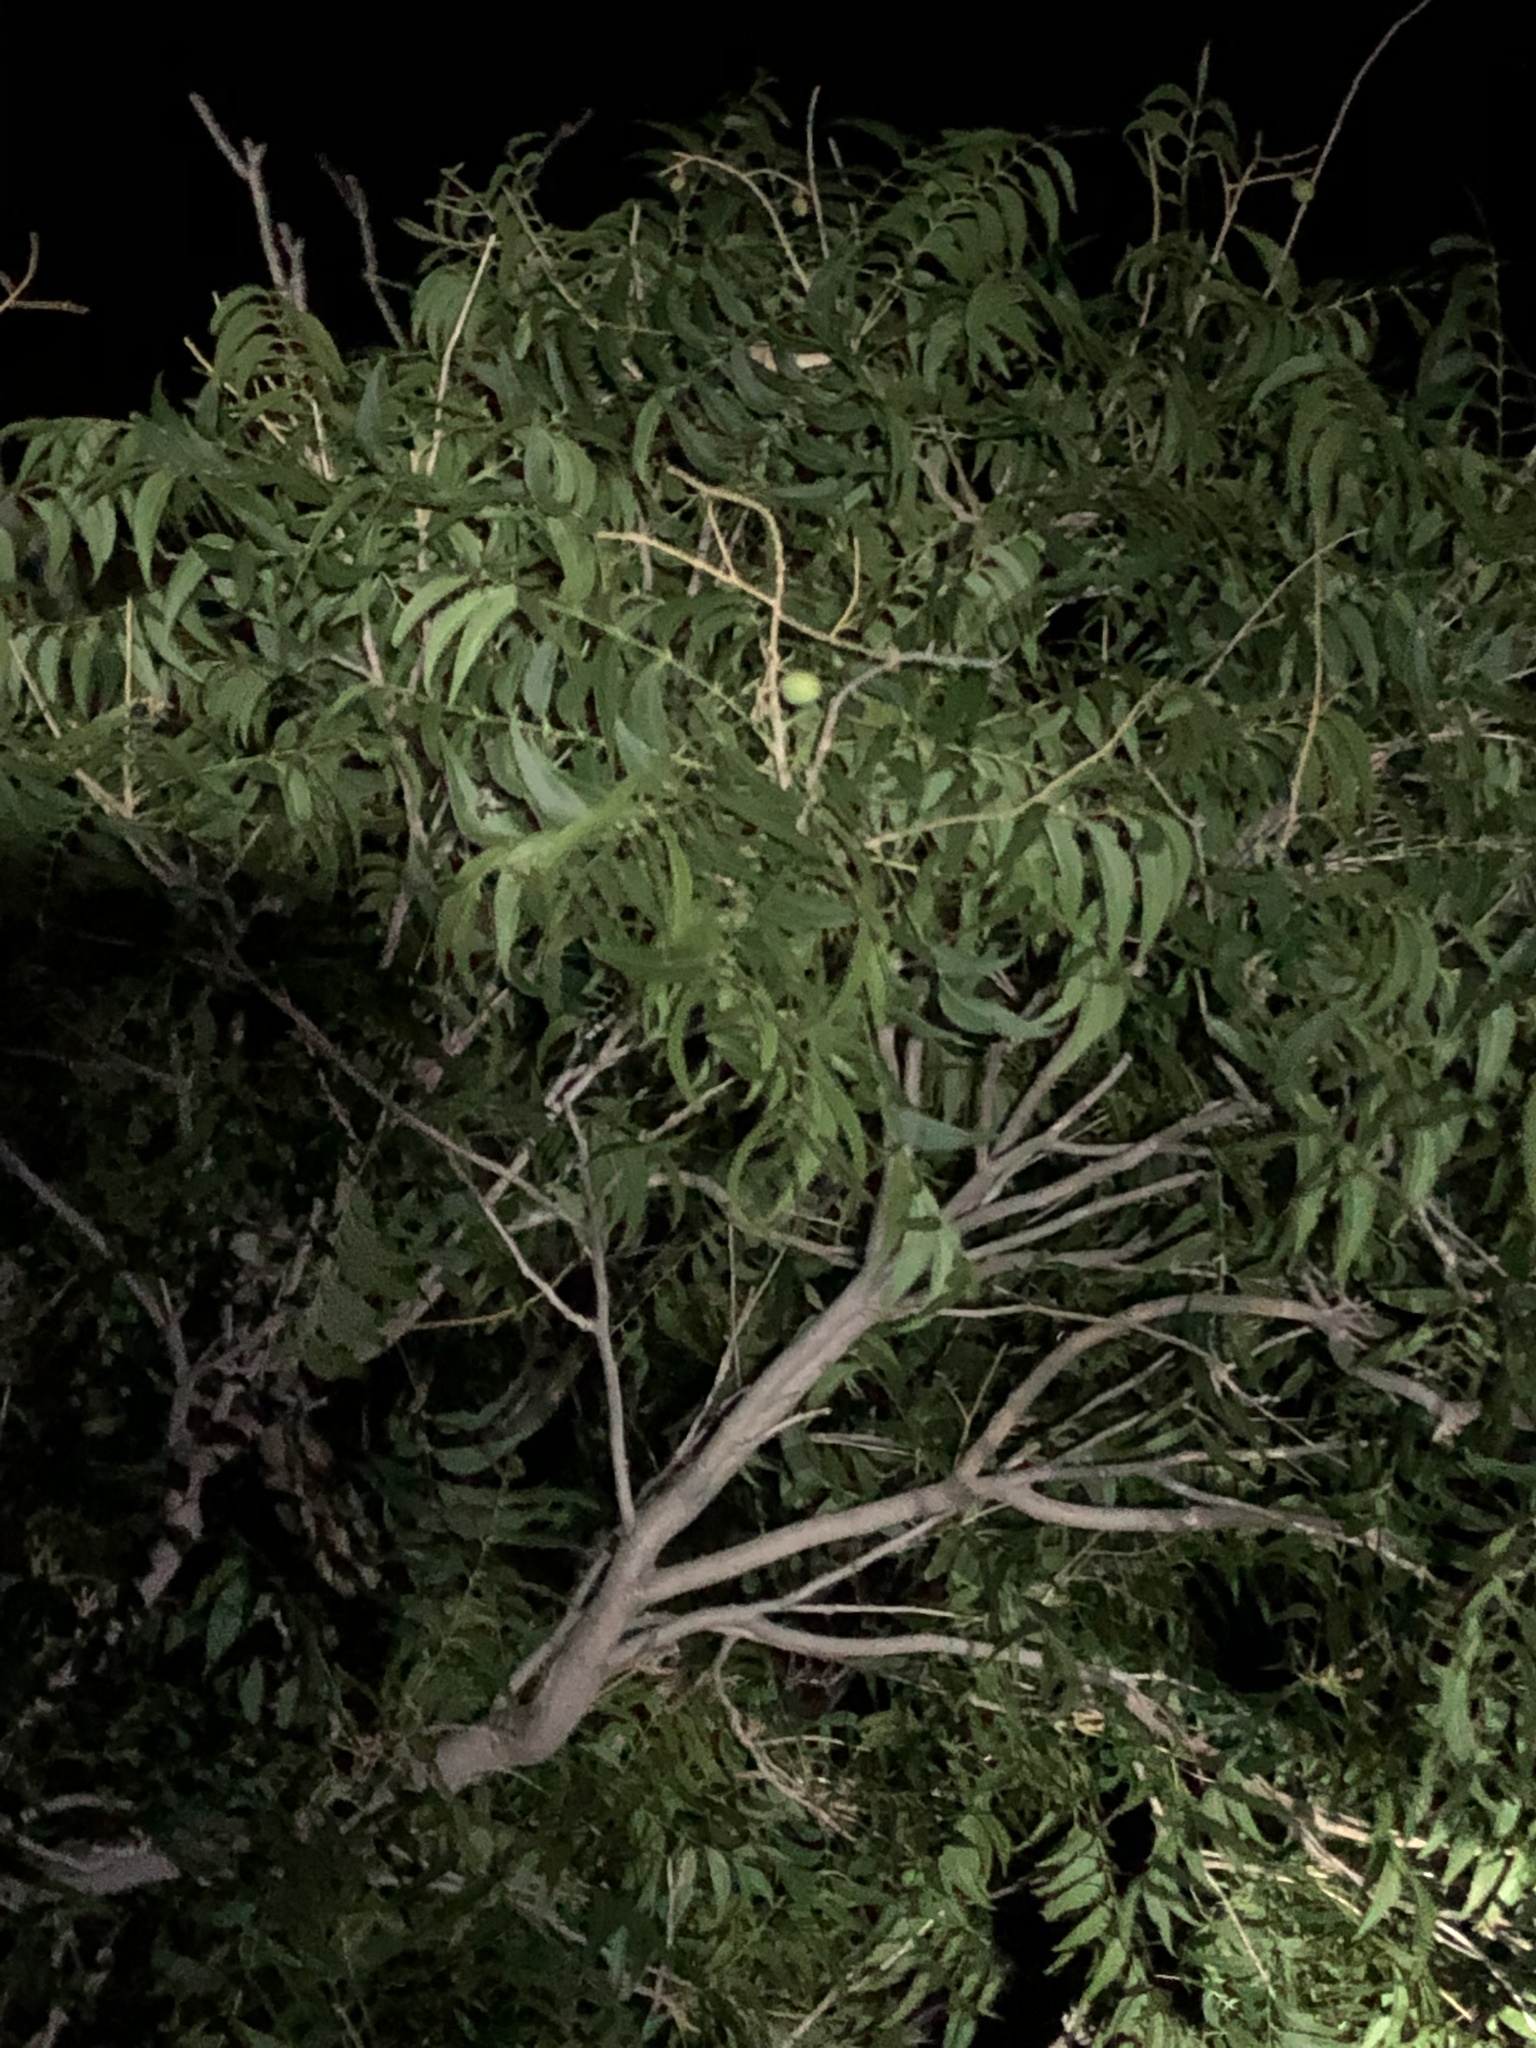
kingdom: Plantae
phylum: Tracheophyta
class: Magnoliopsida
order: Sapindales
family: Sapindaceae
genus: Sapindus
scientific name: Sapindus drummondii
